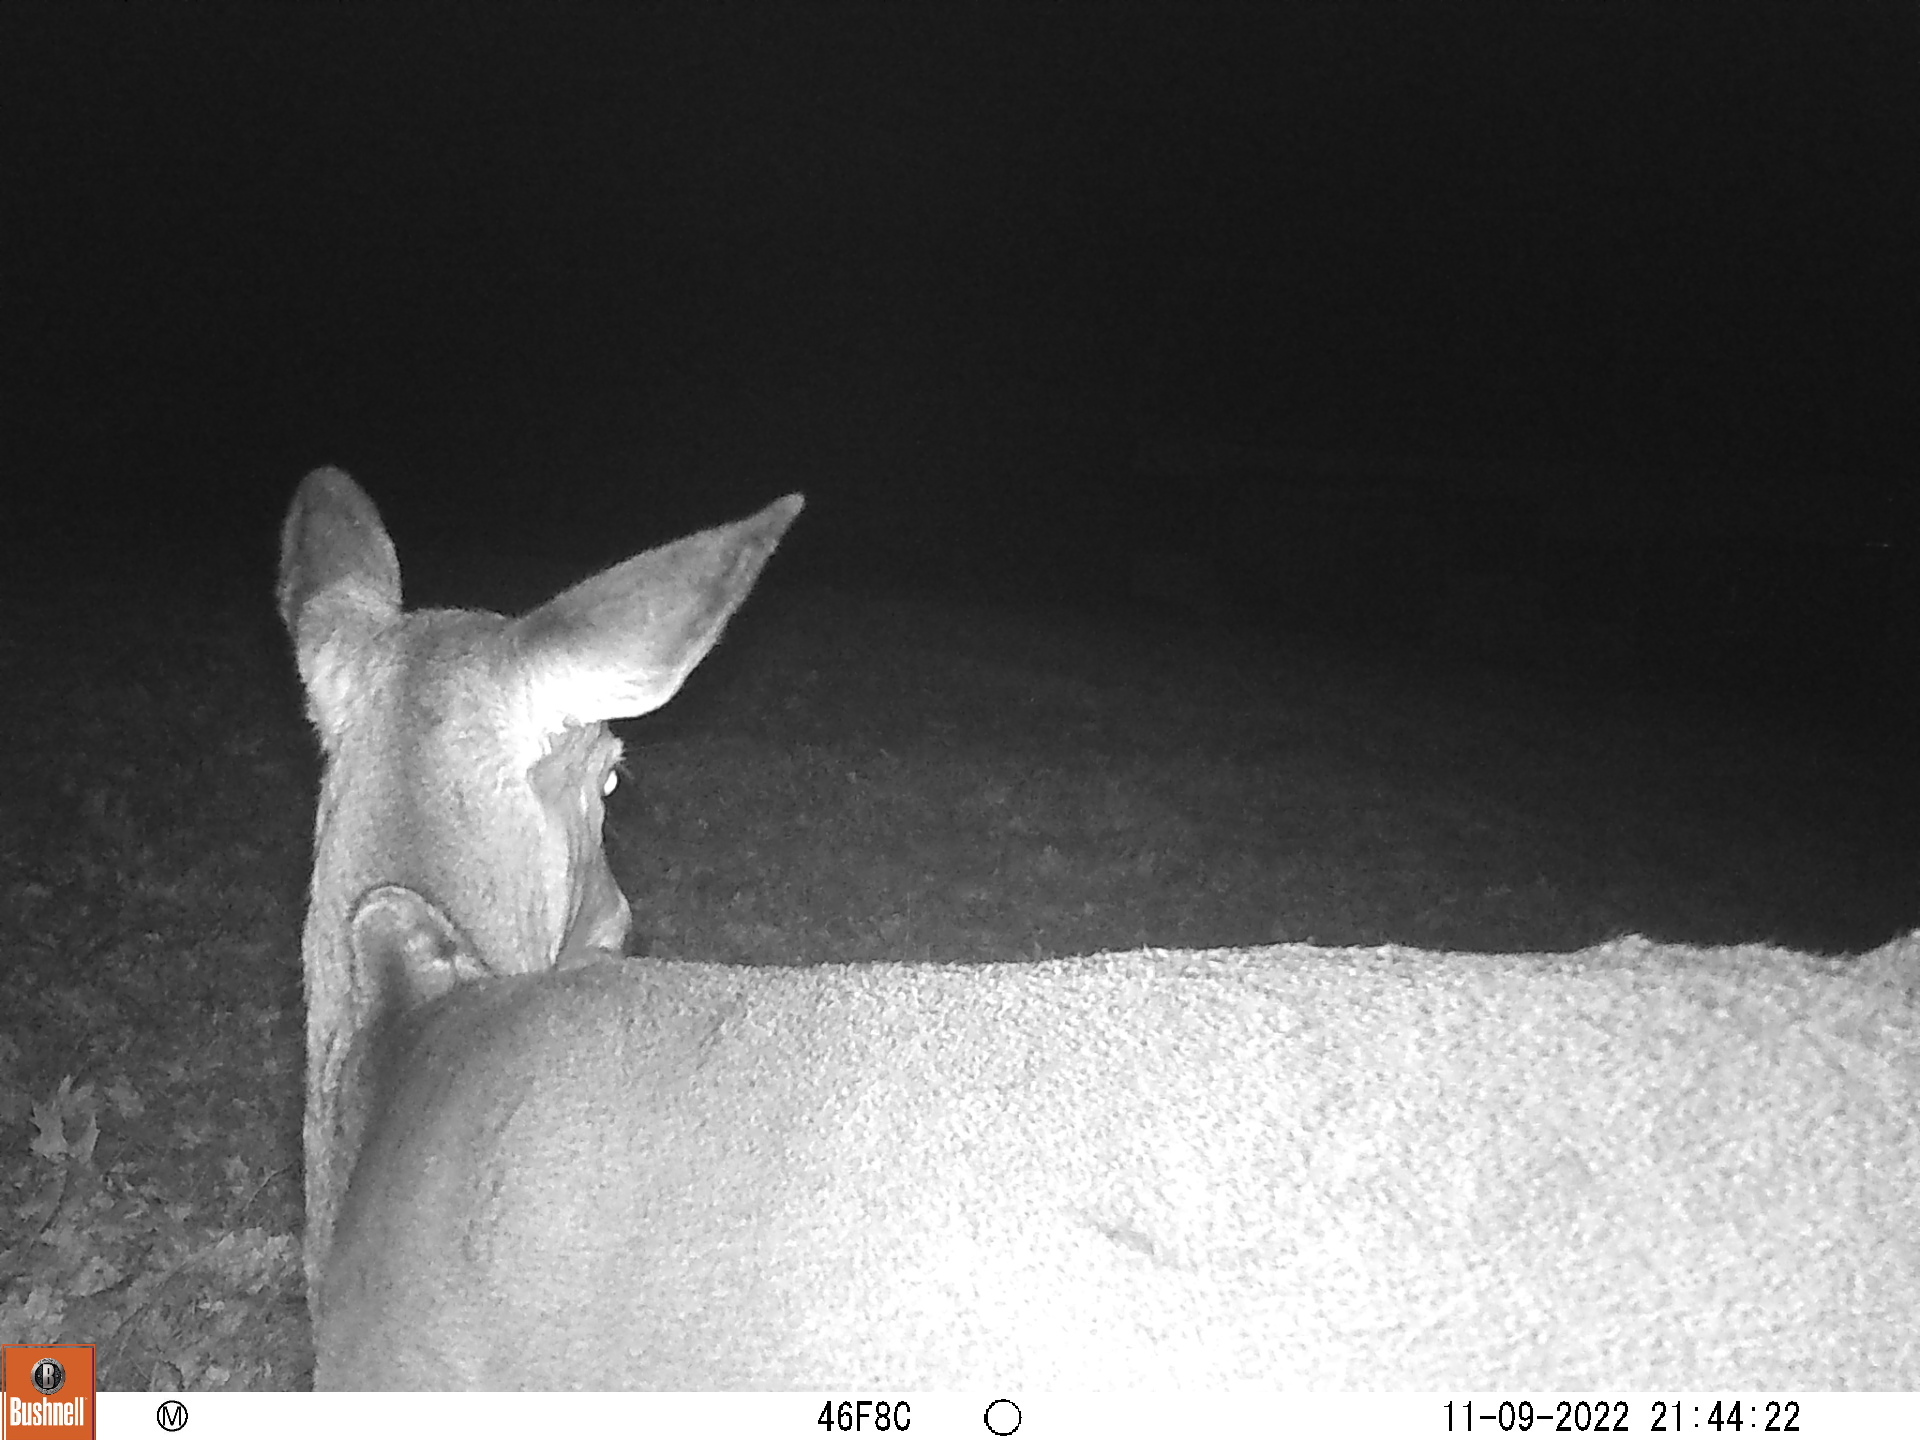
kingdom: Animalia
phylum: Chordata
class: Mammalia
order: Artiodactyla
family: Cervidae
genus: Odocoileus
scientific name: Odocoileus virginianus
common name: White-tailed deer
